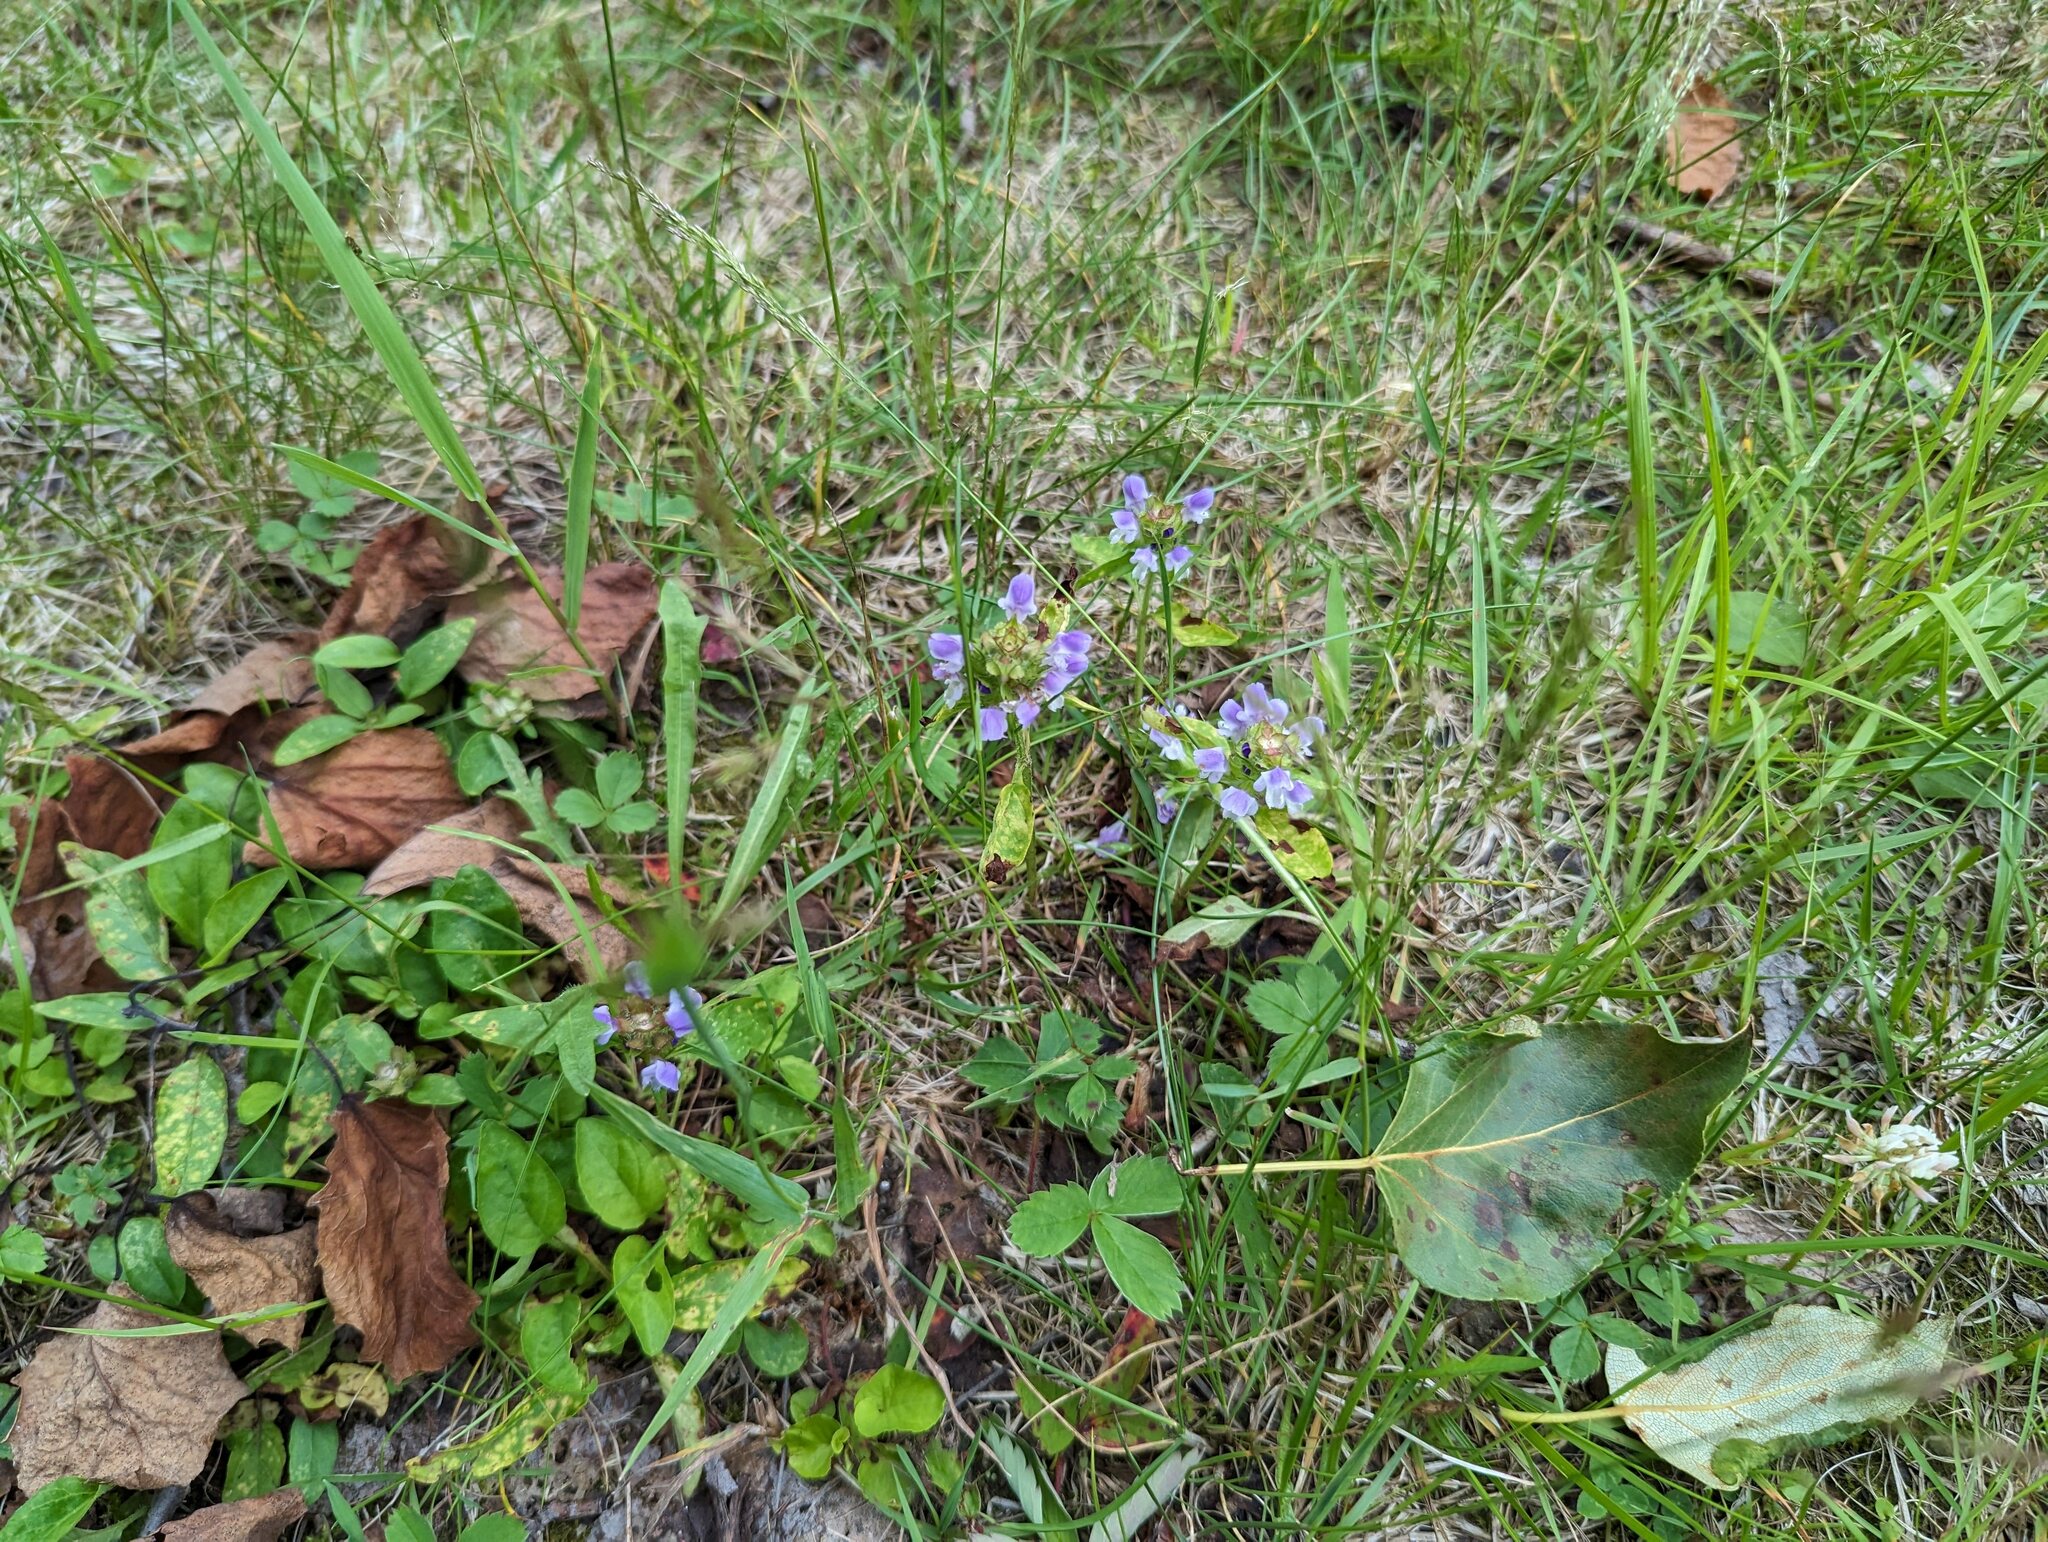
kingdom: Plantae
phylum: Tracheophyta
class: Magnoliopsida
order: Lamiales
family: Lamiaceae
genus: Prunella
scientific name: Prunella vulgaris
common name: Heal-all
